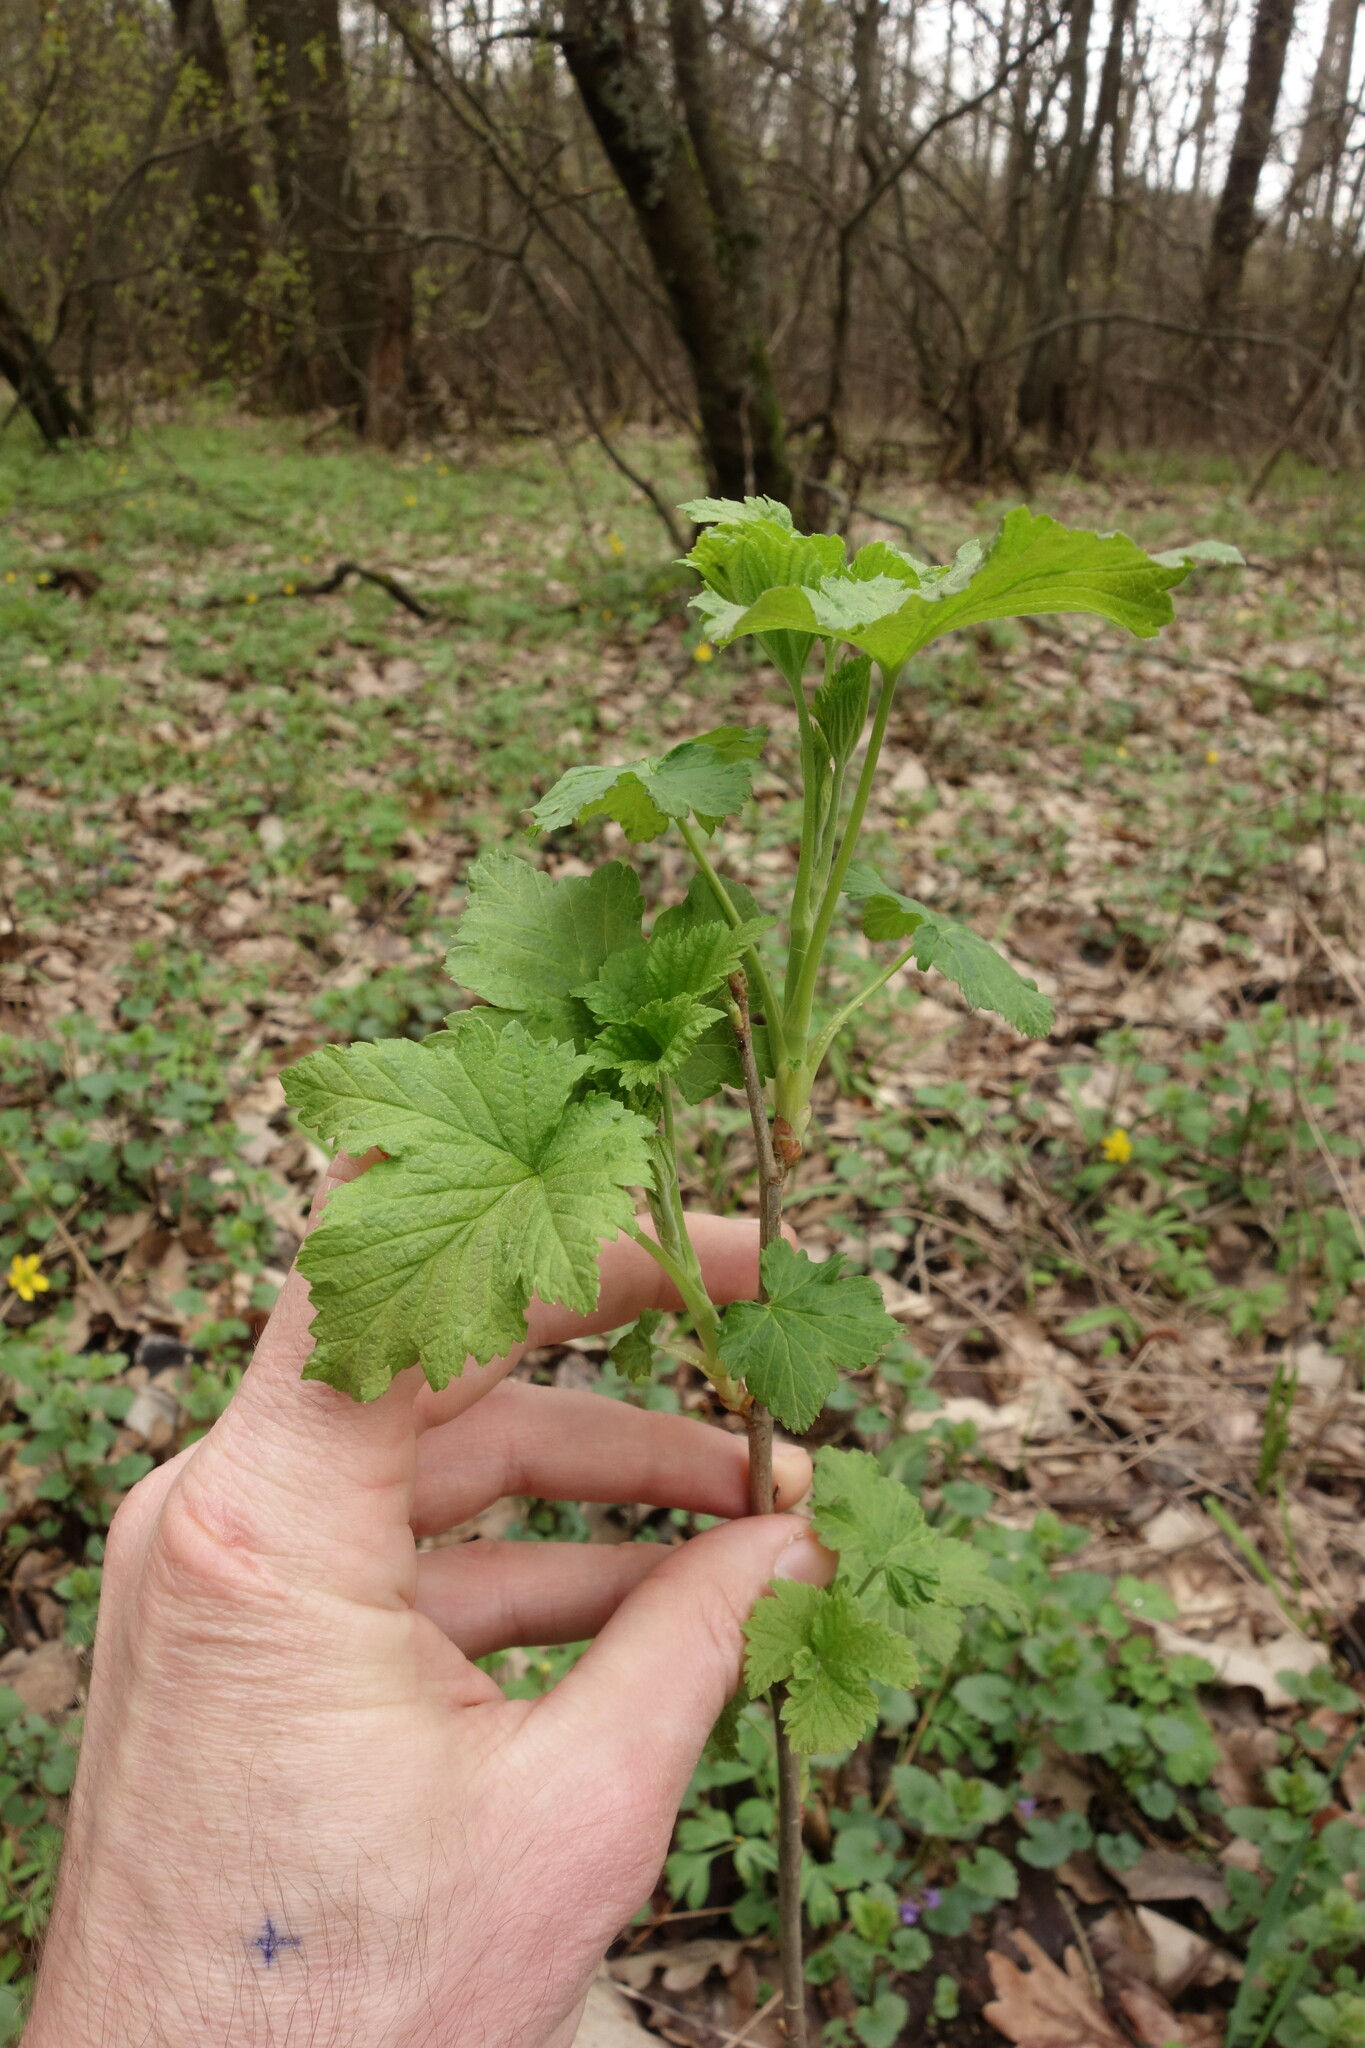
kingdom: Plantae
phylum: Tracheophyta
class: Magnoliopsida
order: Saxifragales
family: Grossulariaceae
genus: Ribes
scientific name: Ribes nigrum
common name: Black currant
